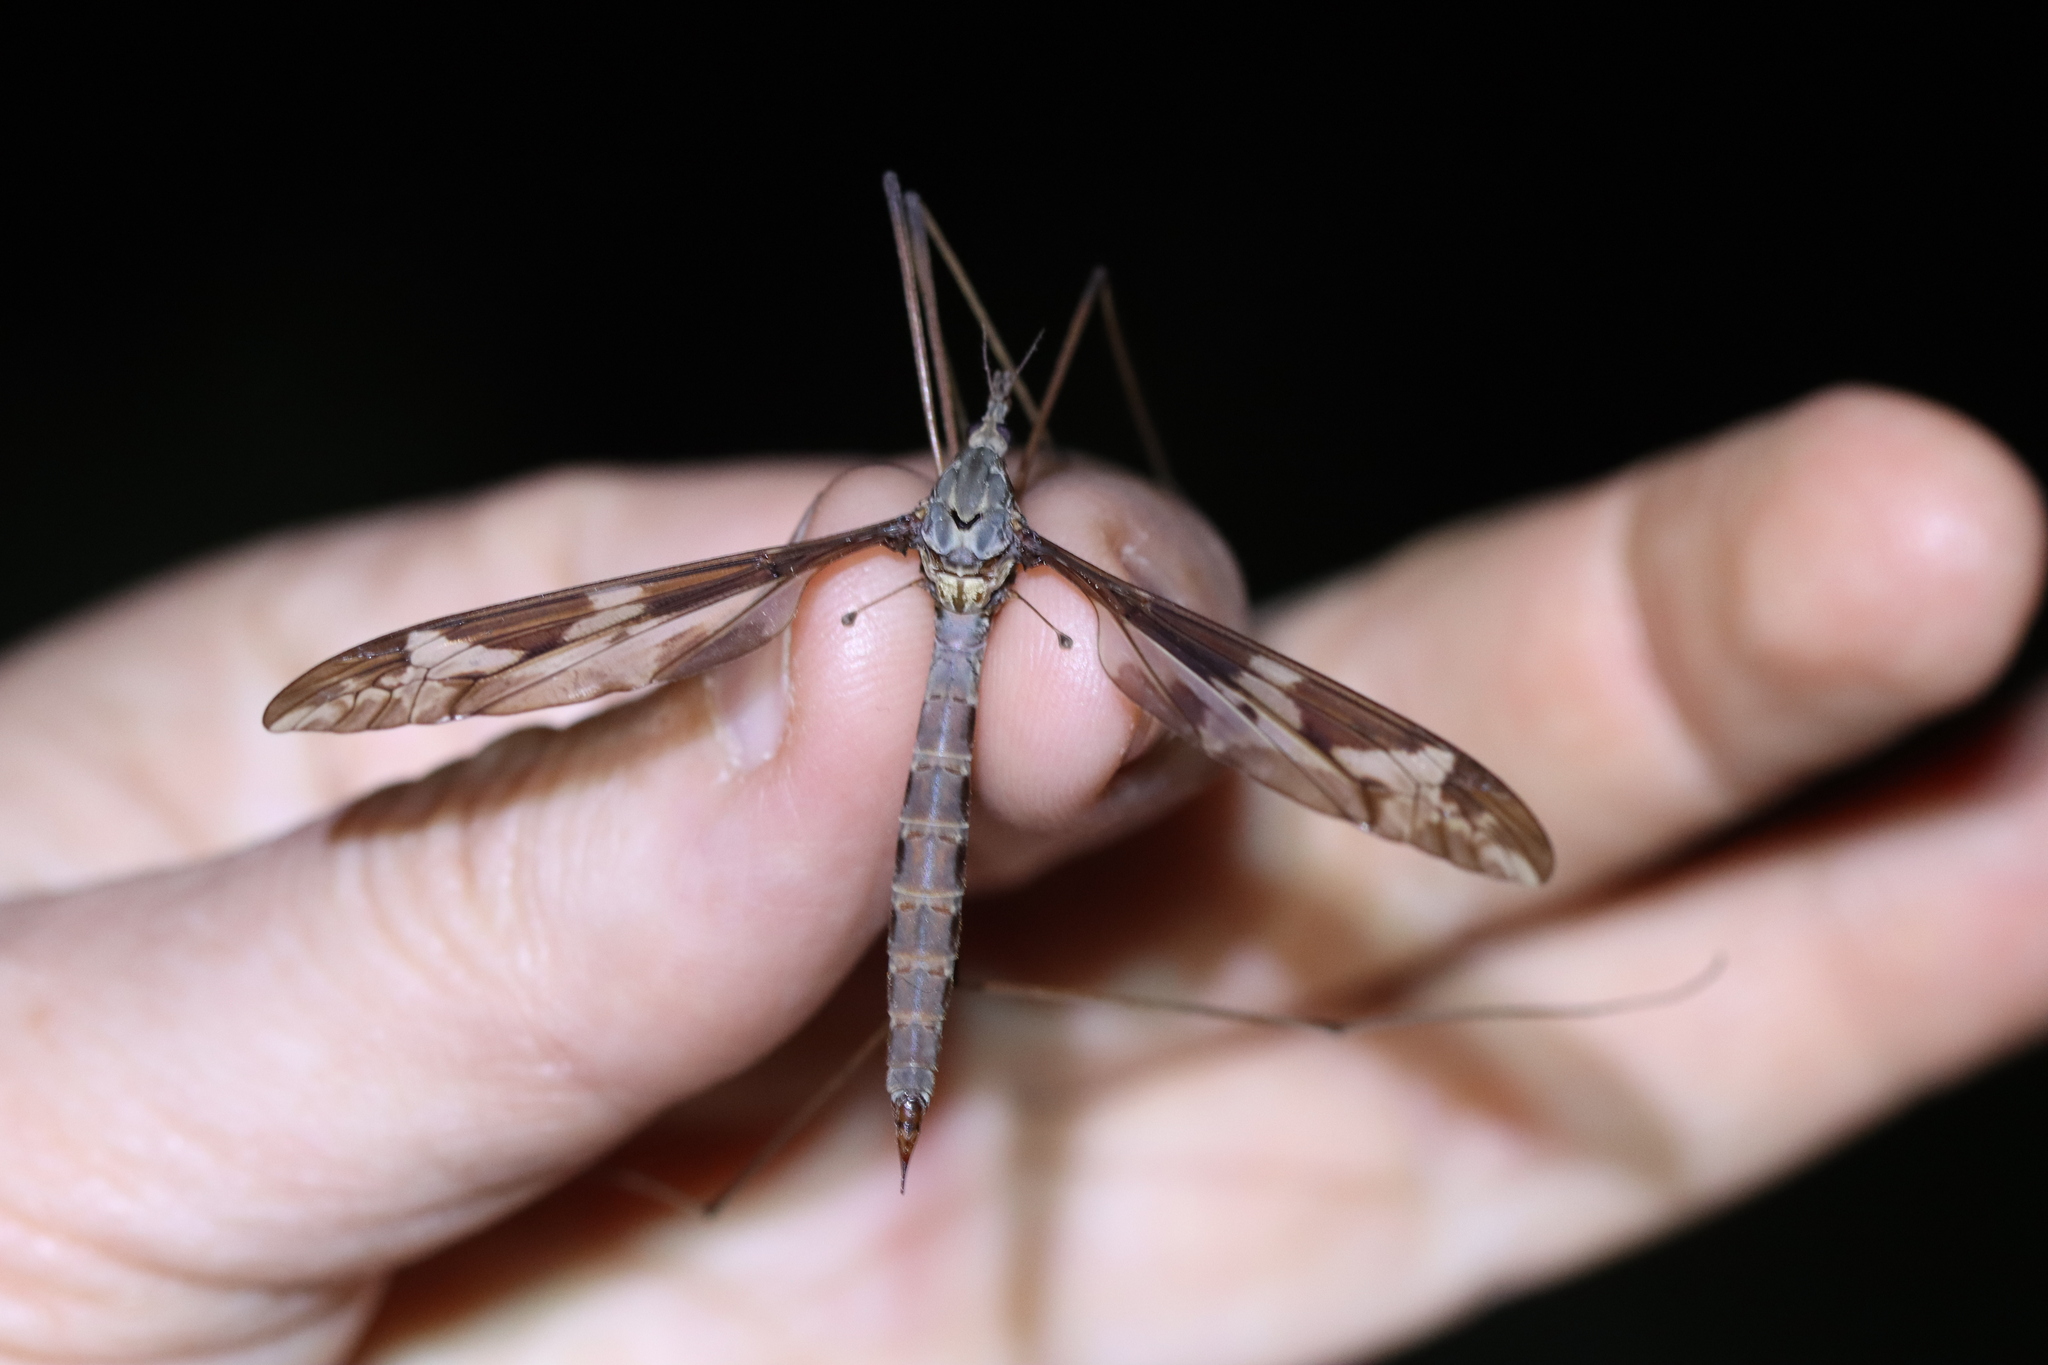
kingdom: Animalia
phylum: Arthropoda
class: Insecta
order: Diptera
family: Tipulidae
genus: Tipula
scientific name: Tipula maxima
